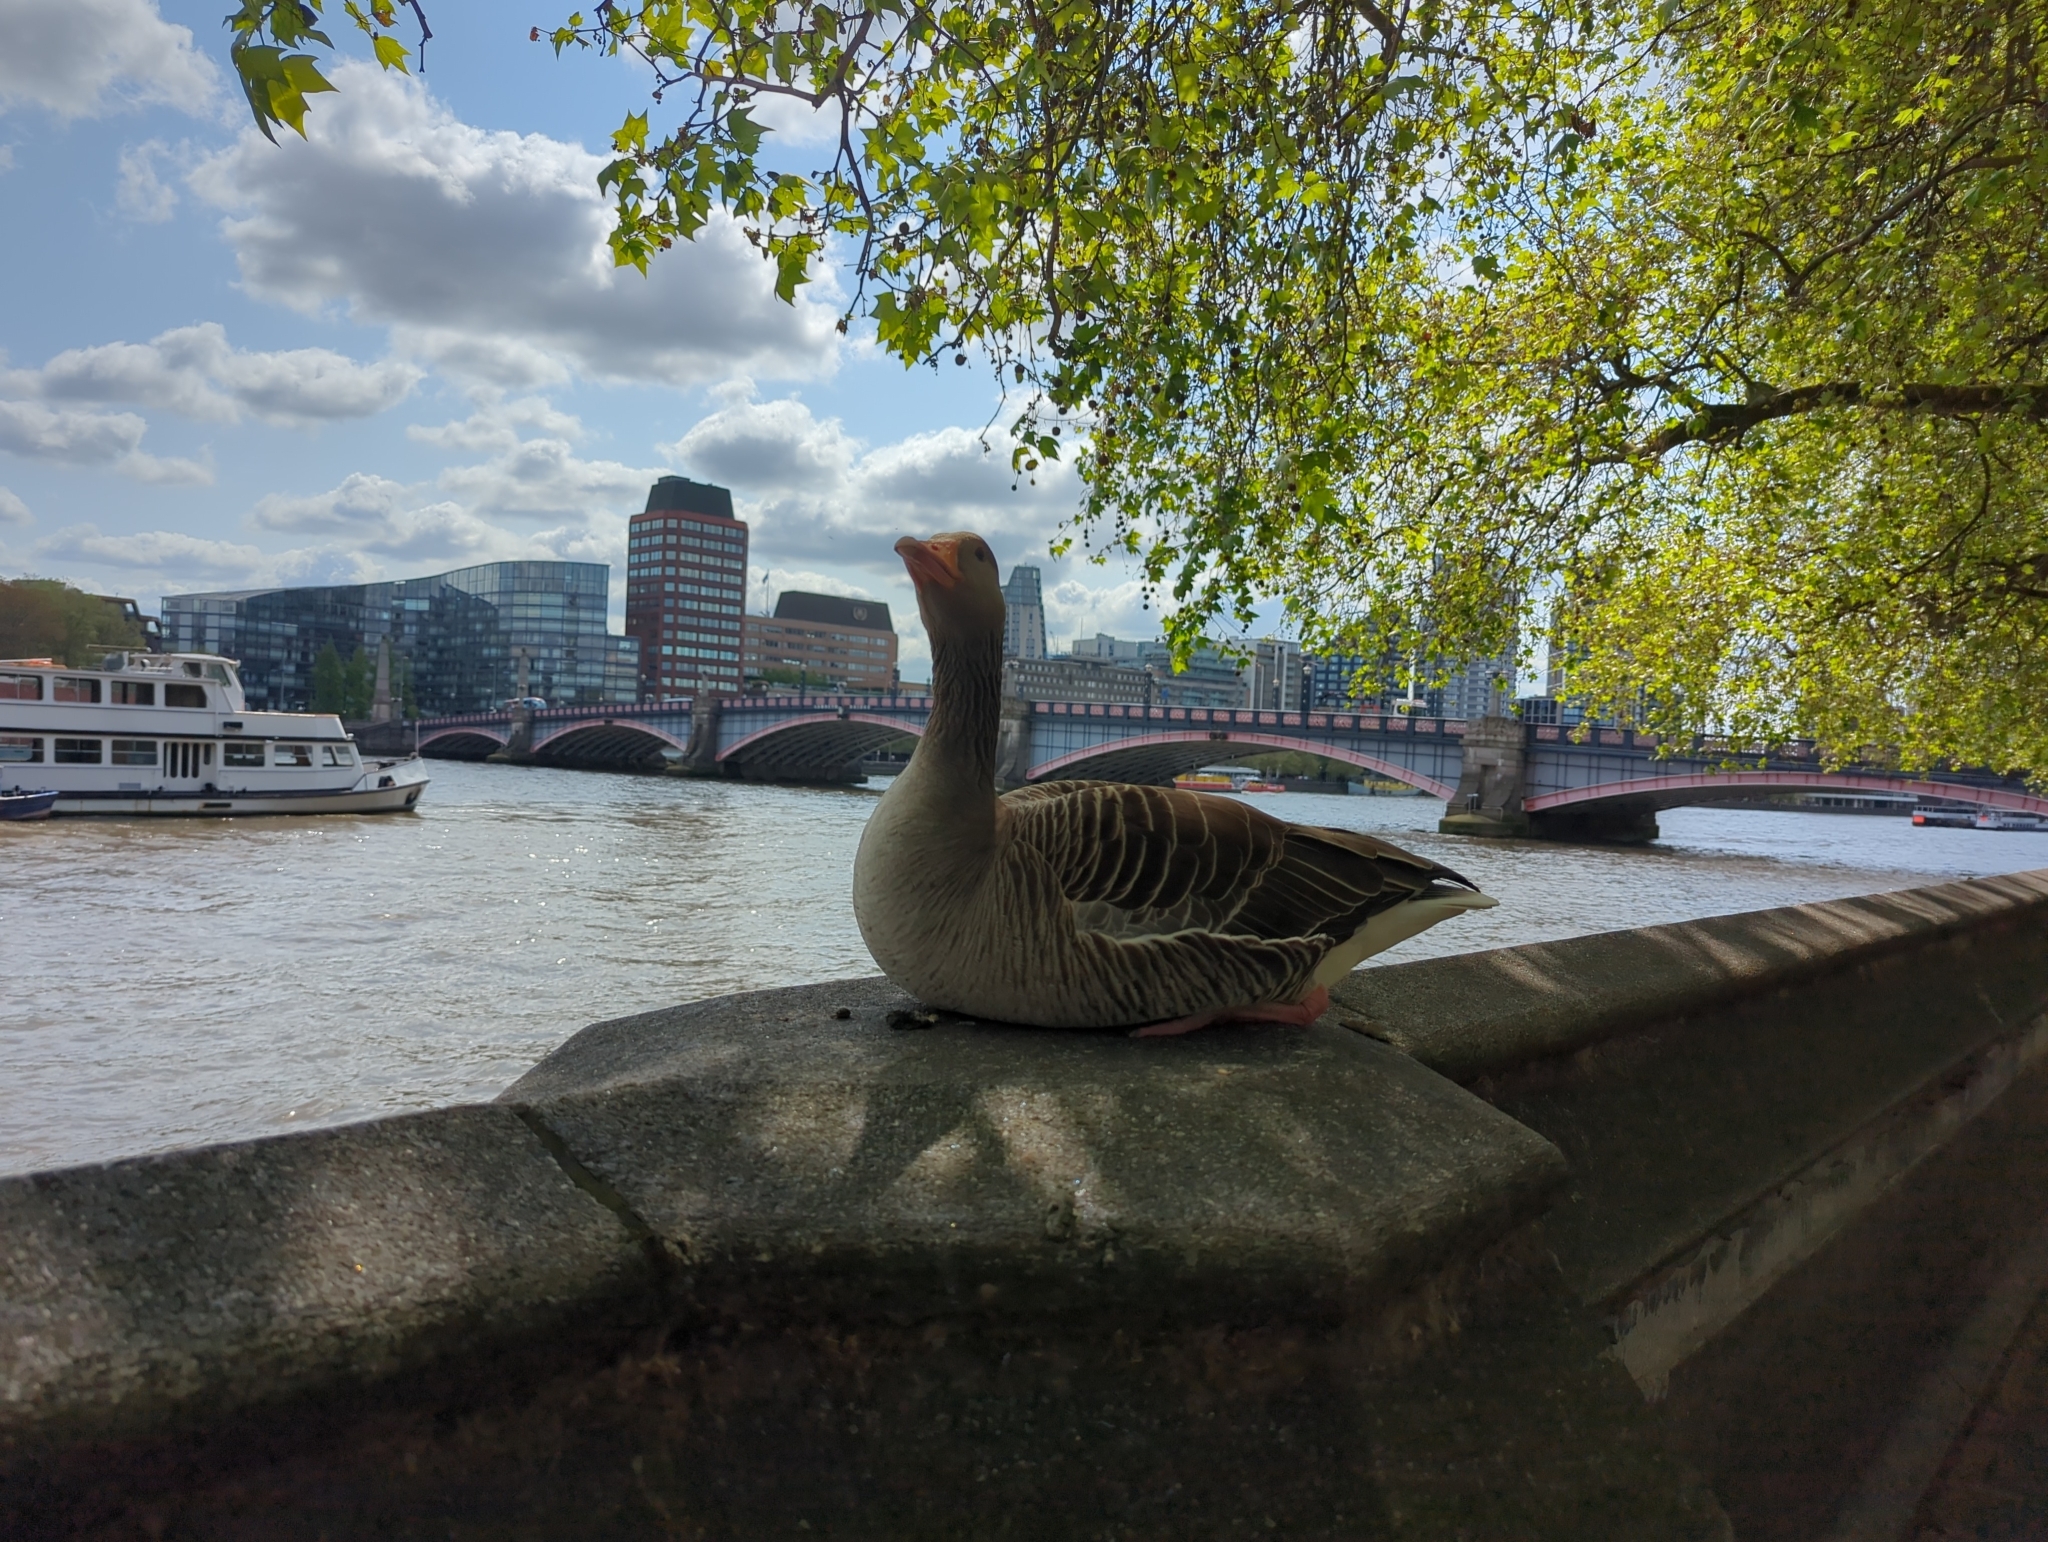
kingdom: Animalia
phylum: Chordata
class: Aves
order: Anseriformes
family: Anatidae
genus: Anser
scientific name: Anser anser
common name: Greylag goose
